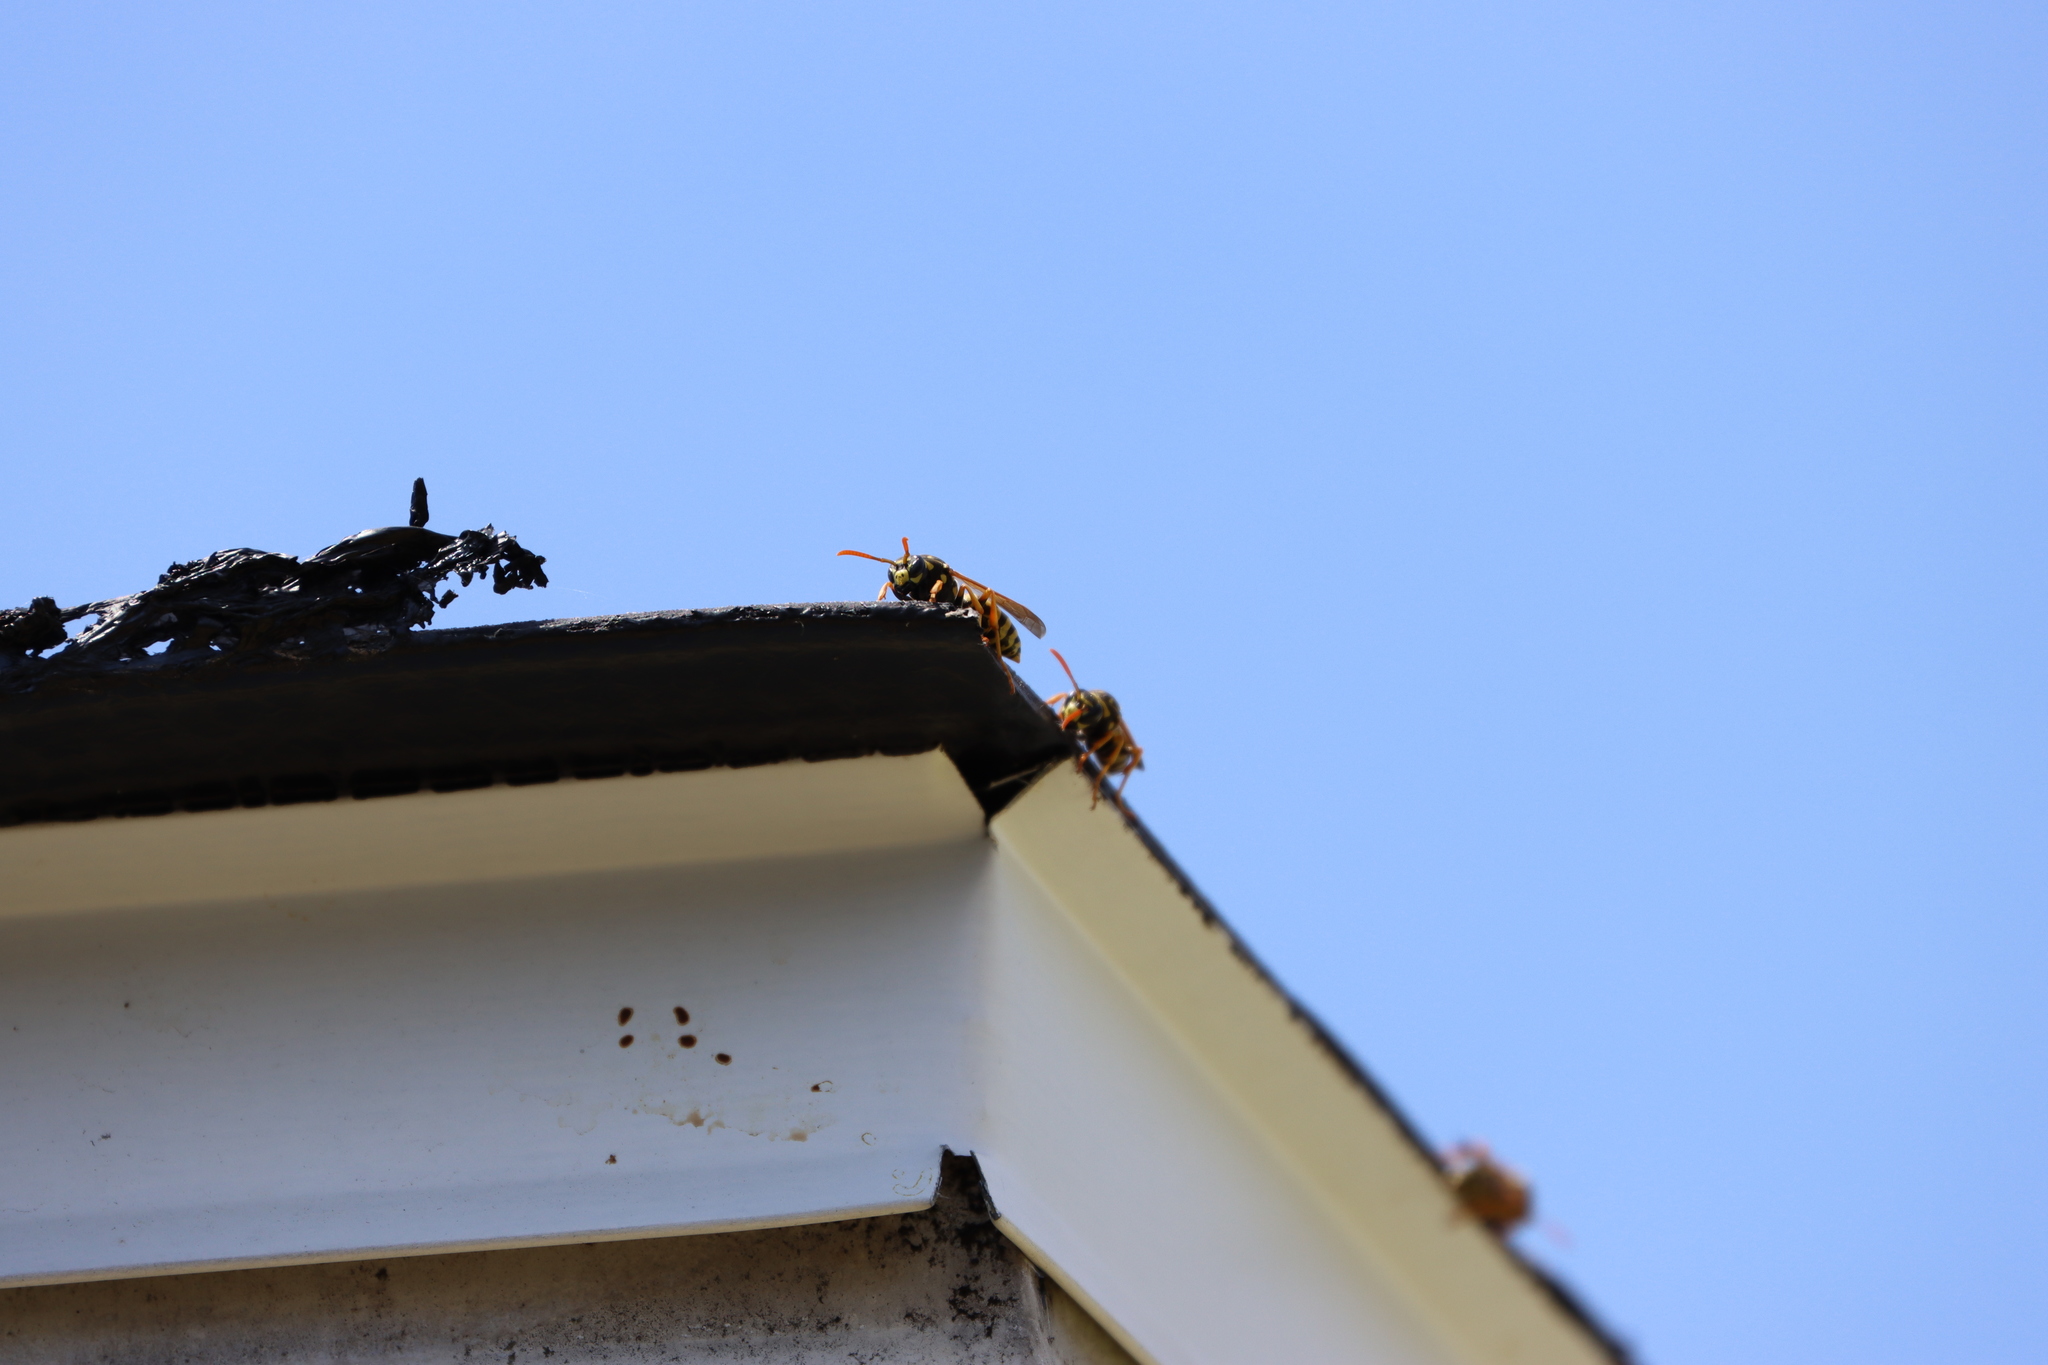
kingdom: Animalia
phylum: Arthropoda
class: Insecta
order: Hymenoptera
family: Eumenidae
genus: Polistes
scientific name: Polistes dominula
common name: Paper wasp
